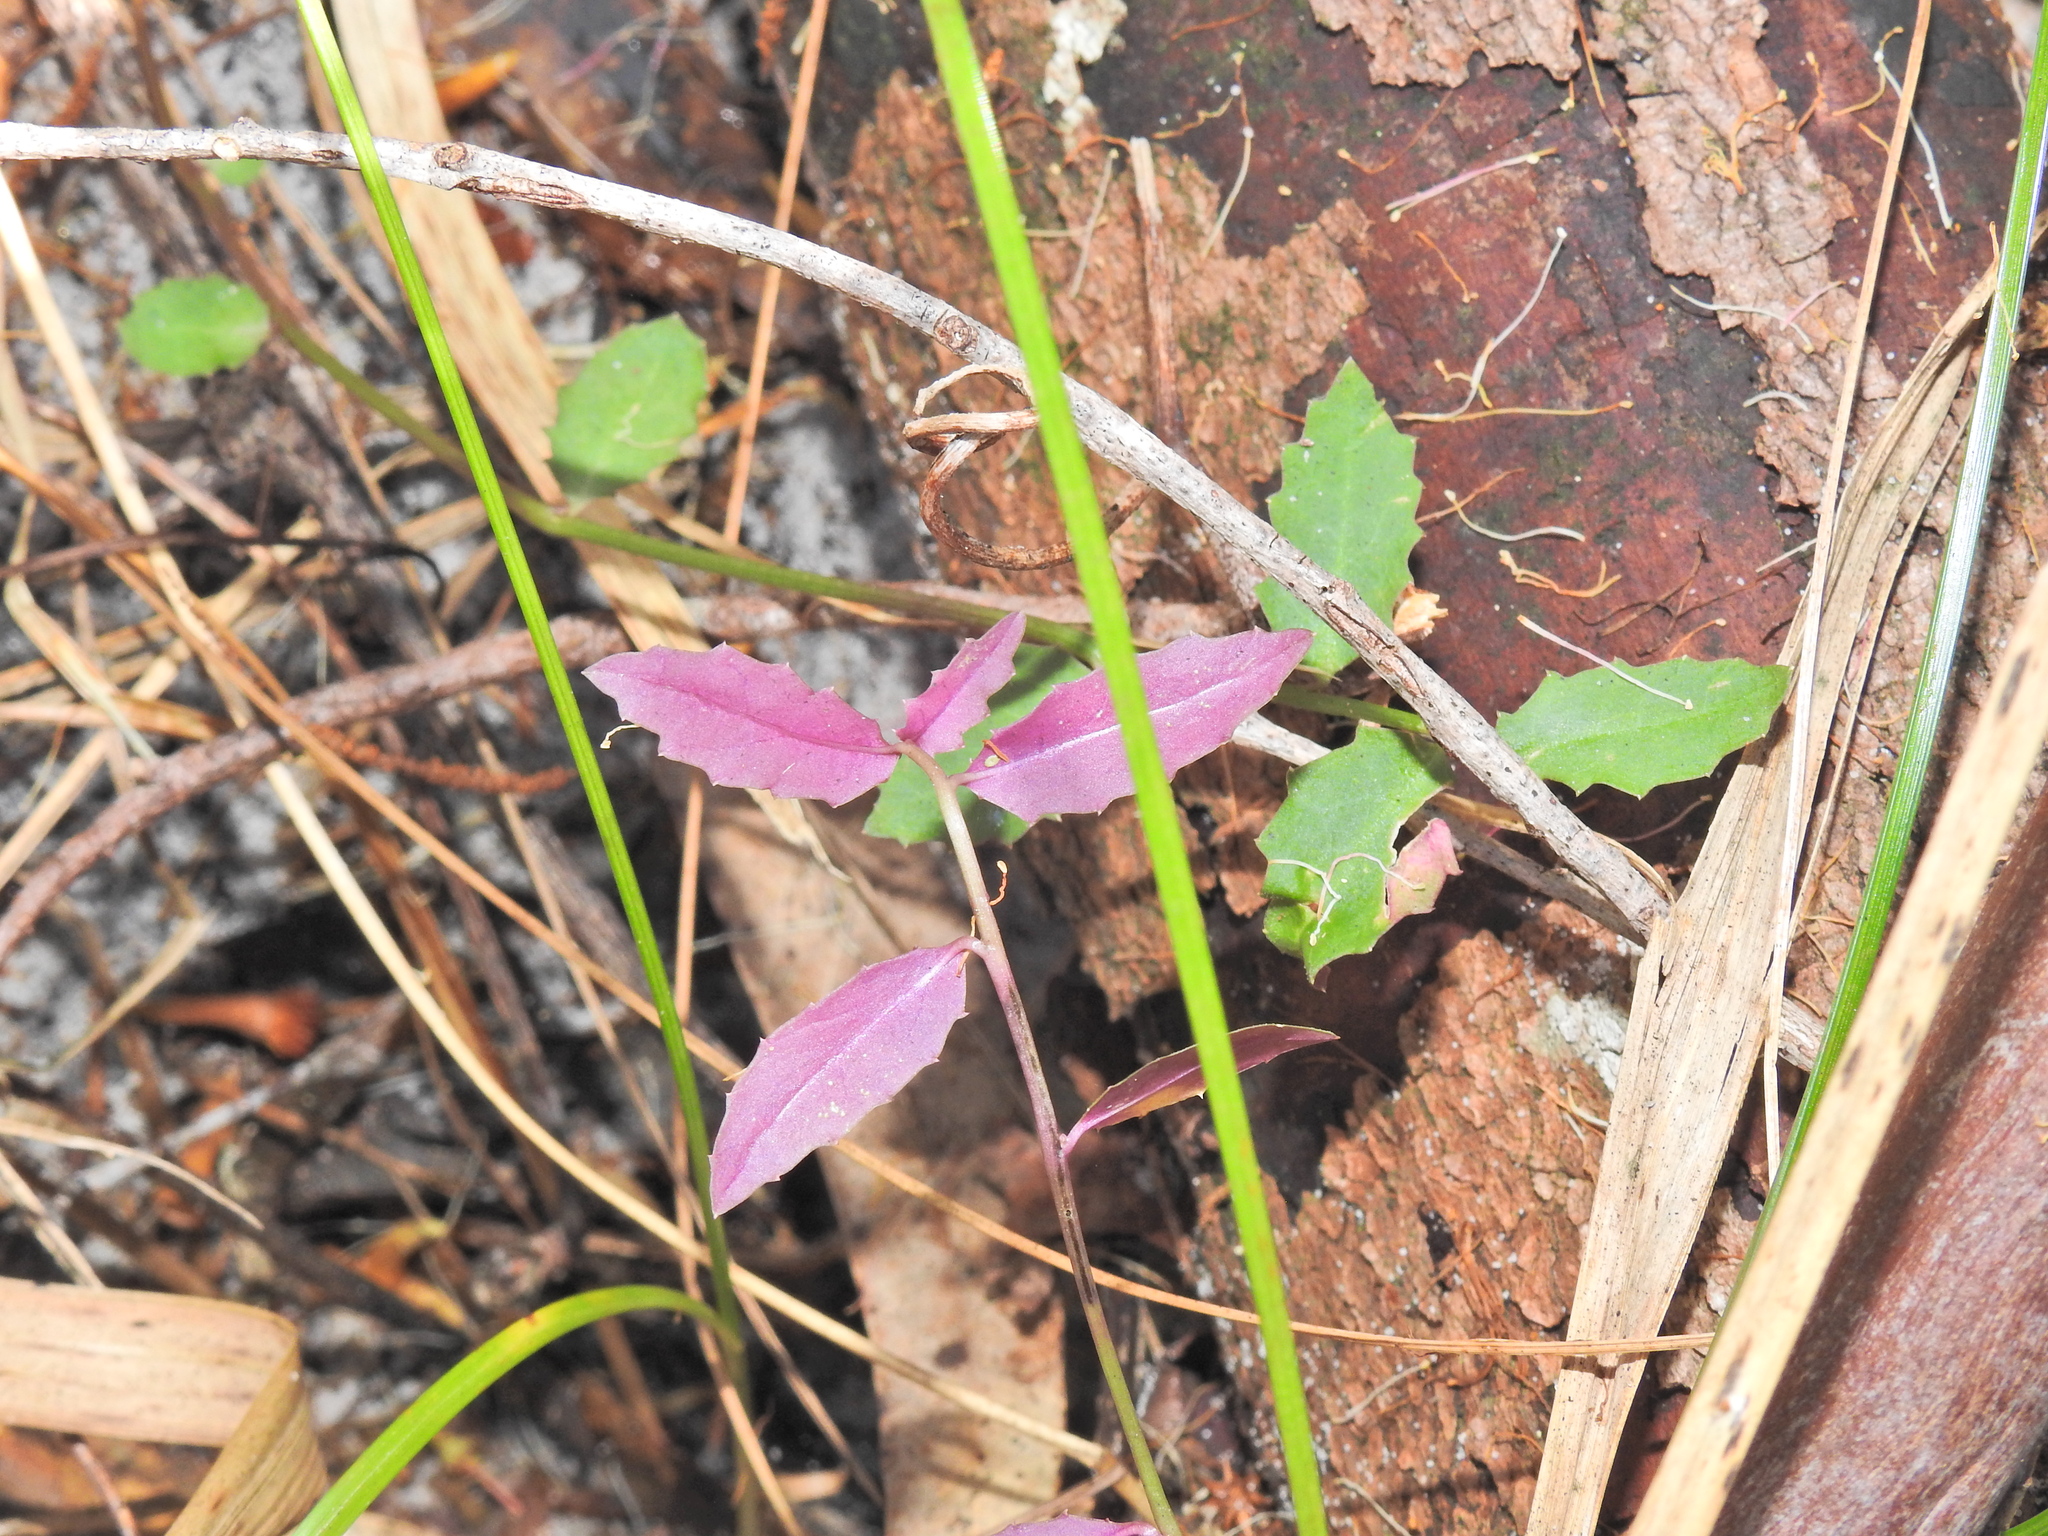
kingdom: Plantae
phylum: Tracheophyta
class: Magnoliopsida
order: Asterales
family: Campanulaceae
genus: Lobelia
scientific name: Lobelia purpurascens
